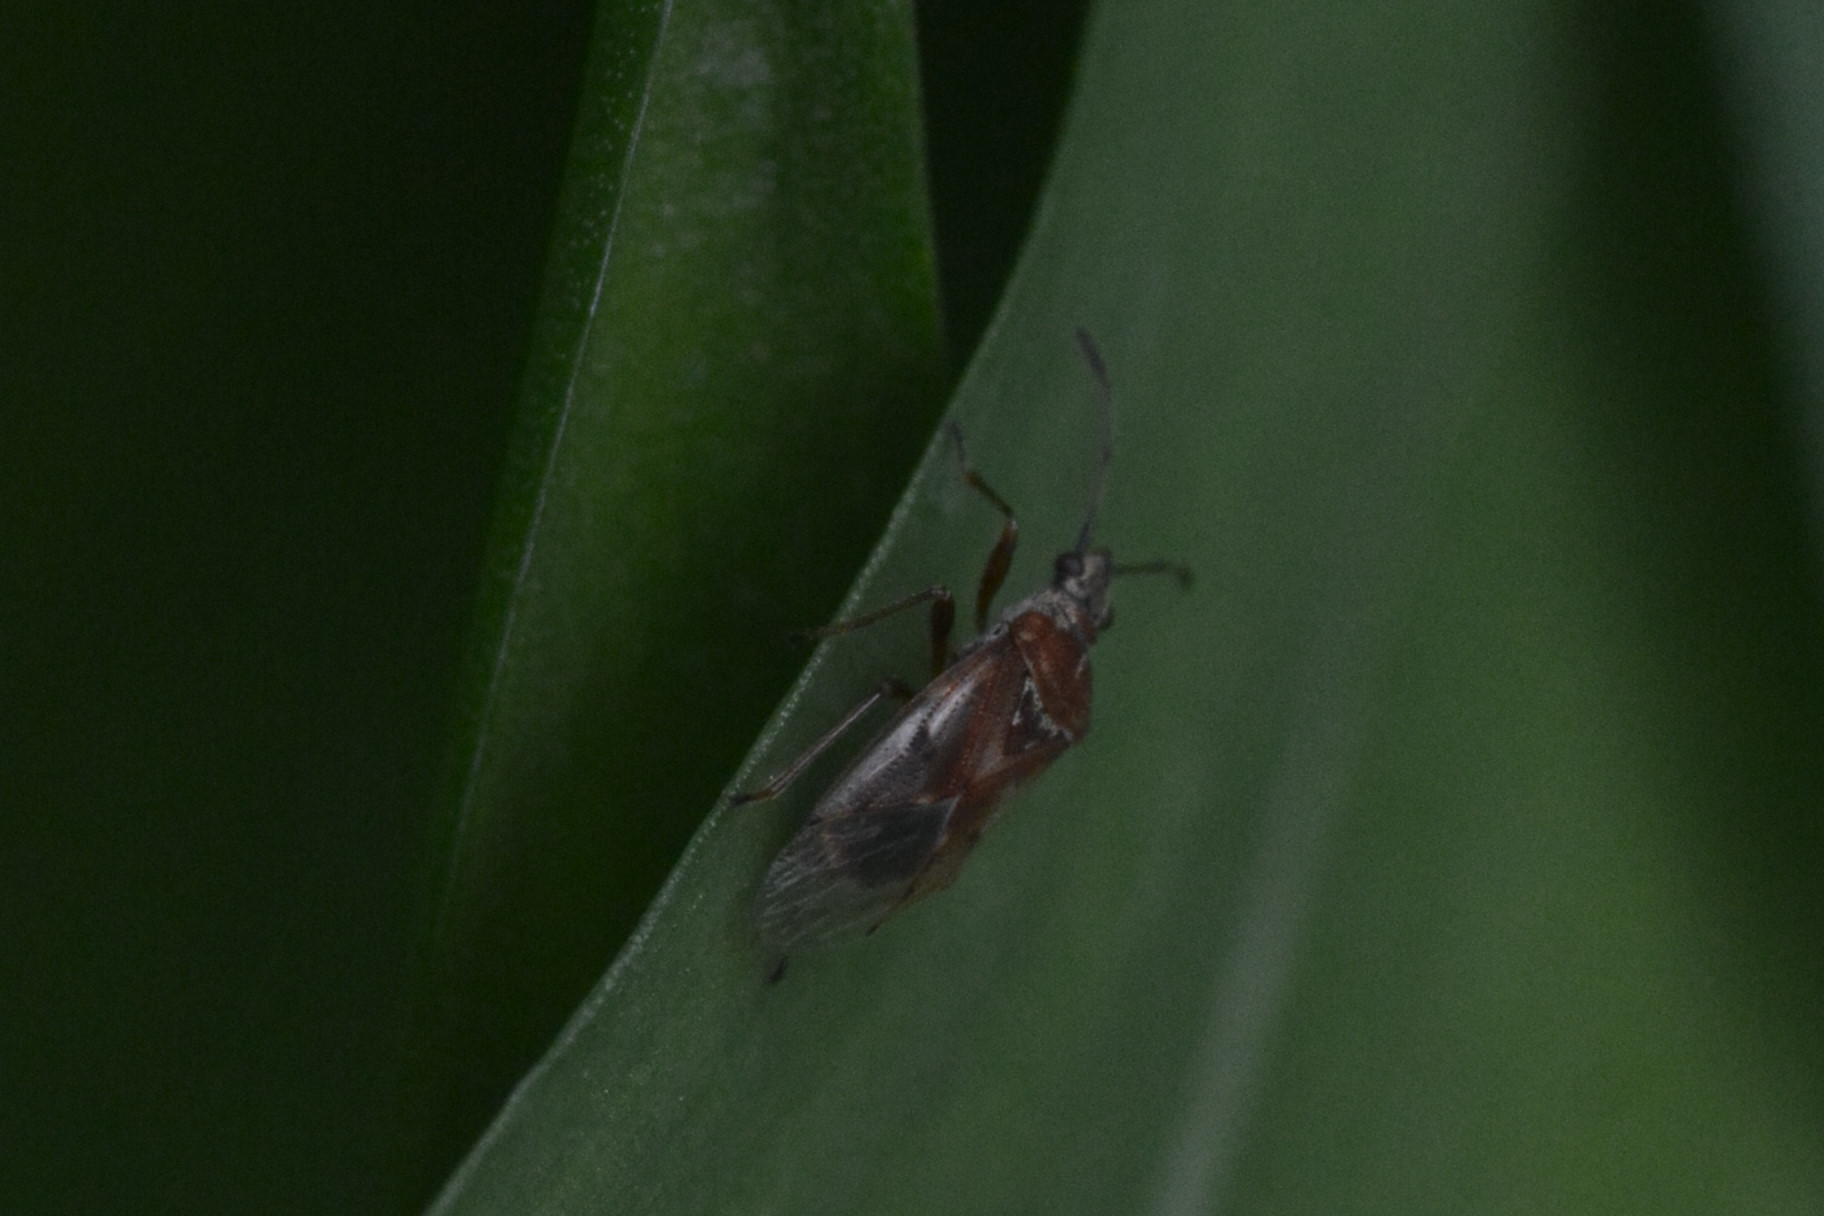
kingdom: Animalia
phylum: Arthropoda
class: Insecta
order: Hemiptera
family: Lygaeidae
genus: Kleidocerys
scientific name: Kleidocerys resedae
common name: Birch catkin bug
